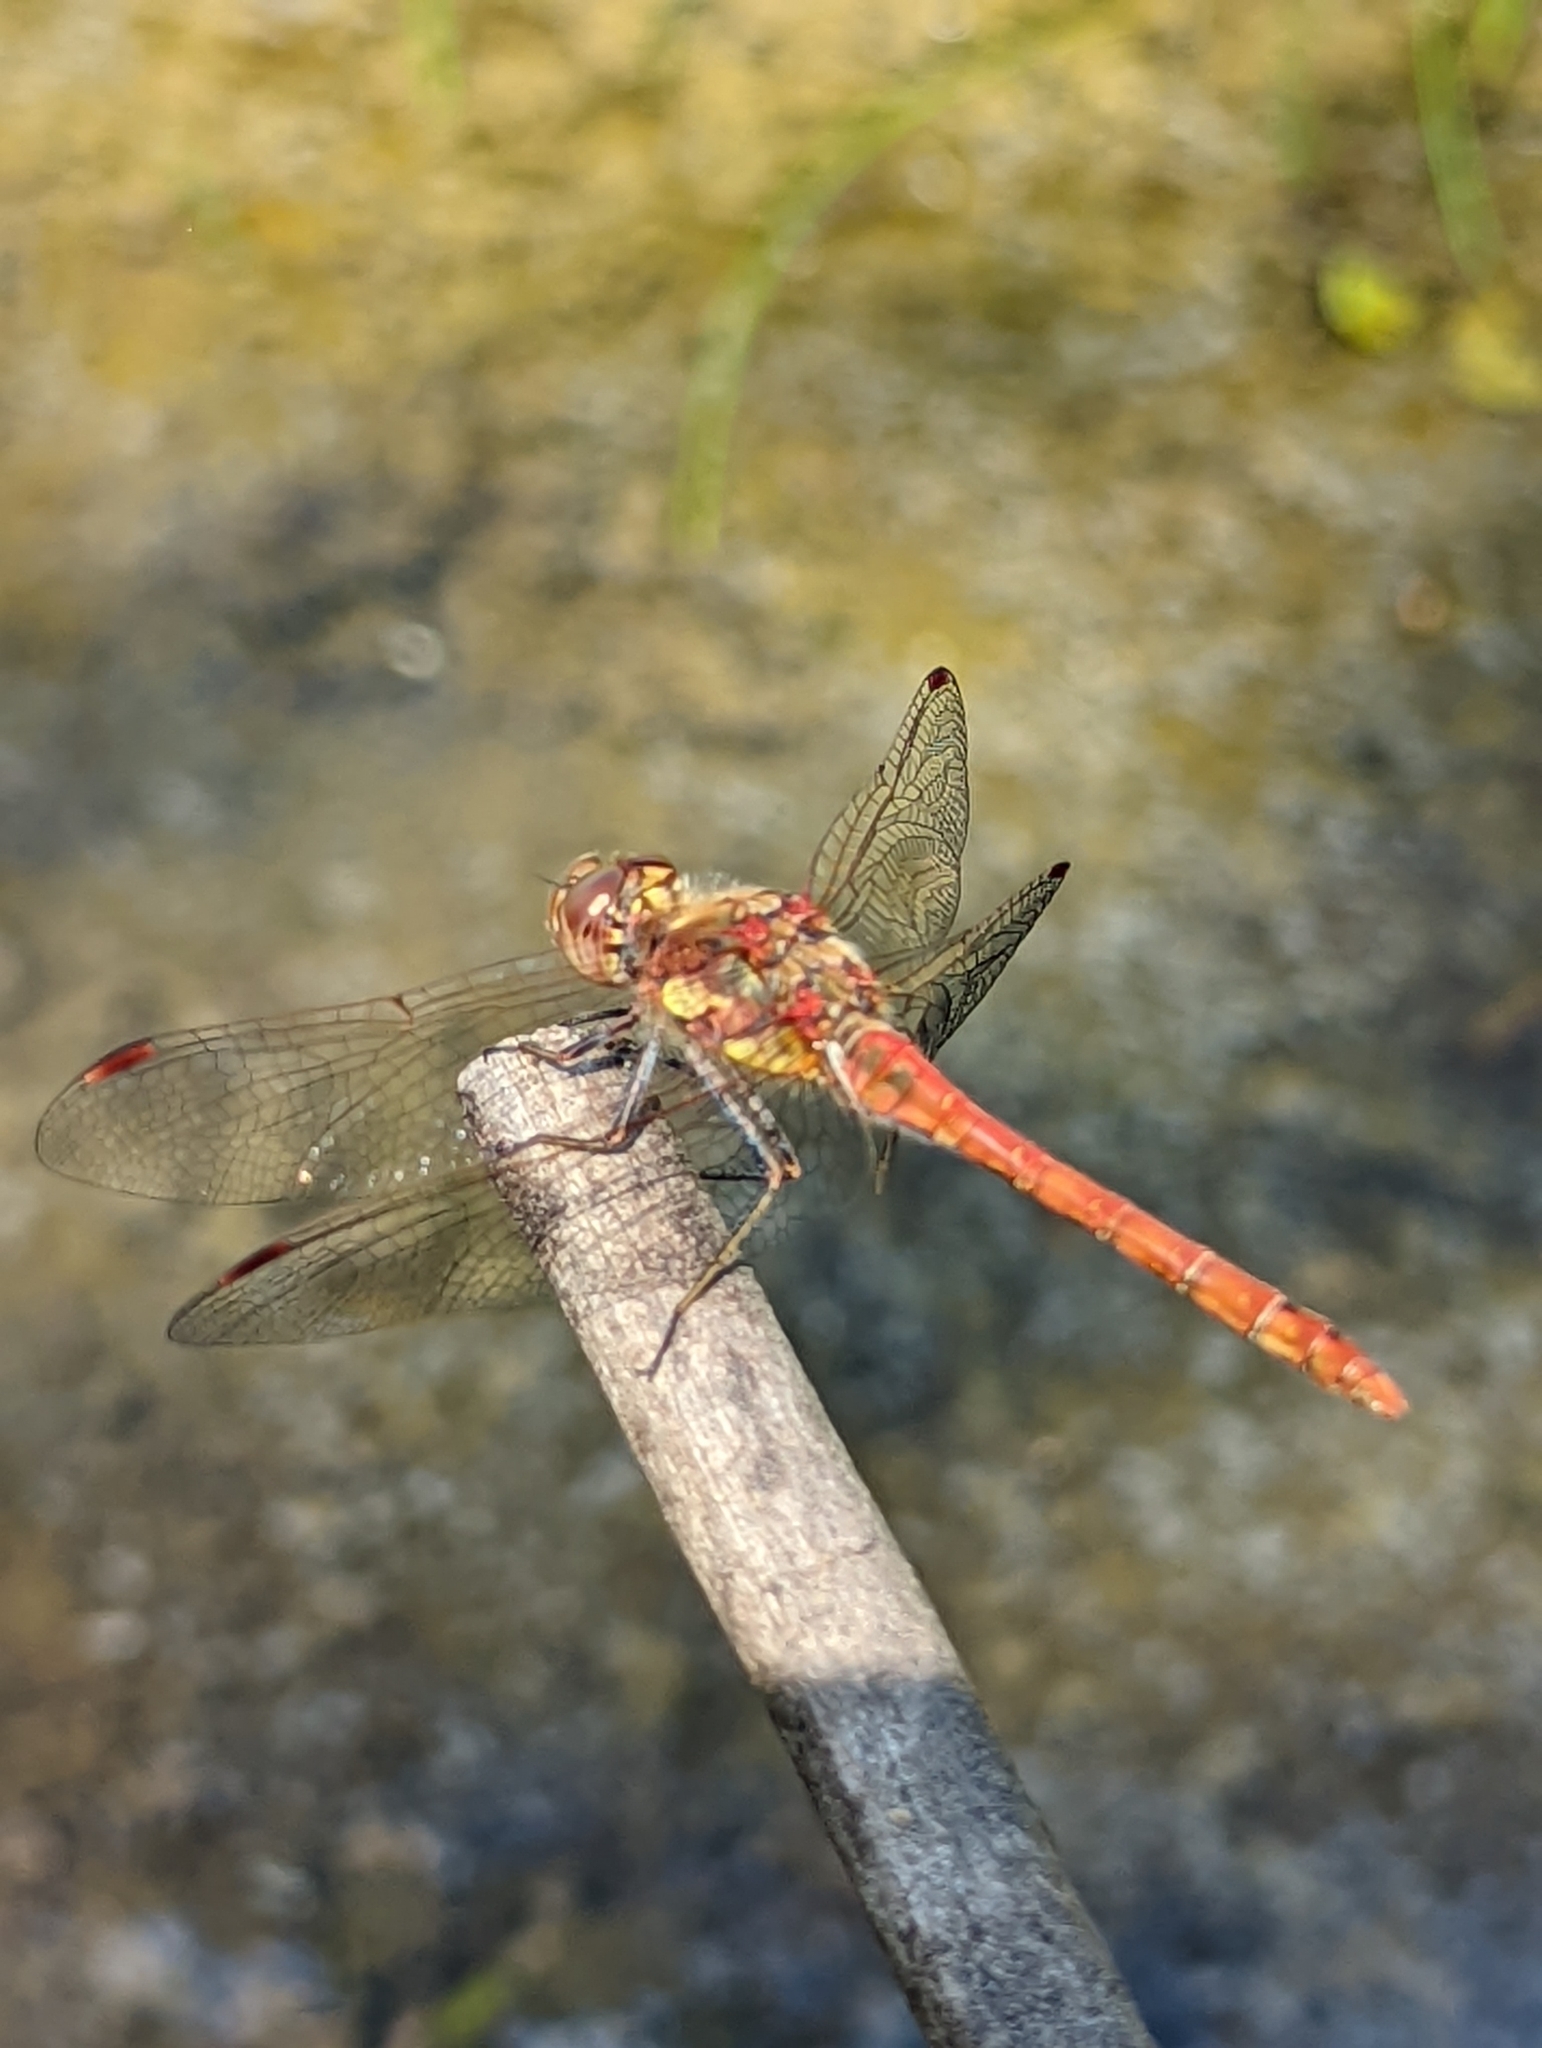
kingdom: Animalia
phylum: Arthropoda
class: Insecta
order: Odonata
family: Libellulidae
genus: Sympetrum
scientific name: Sympetrum striolatum
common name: Common darter
